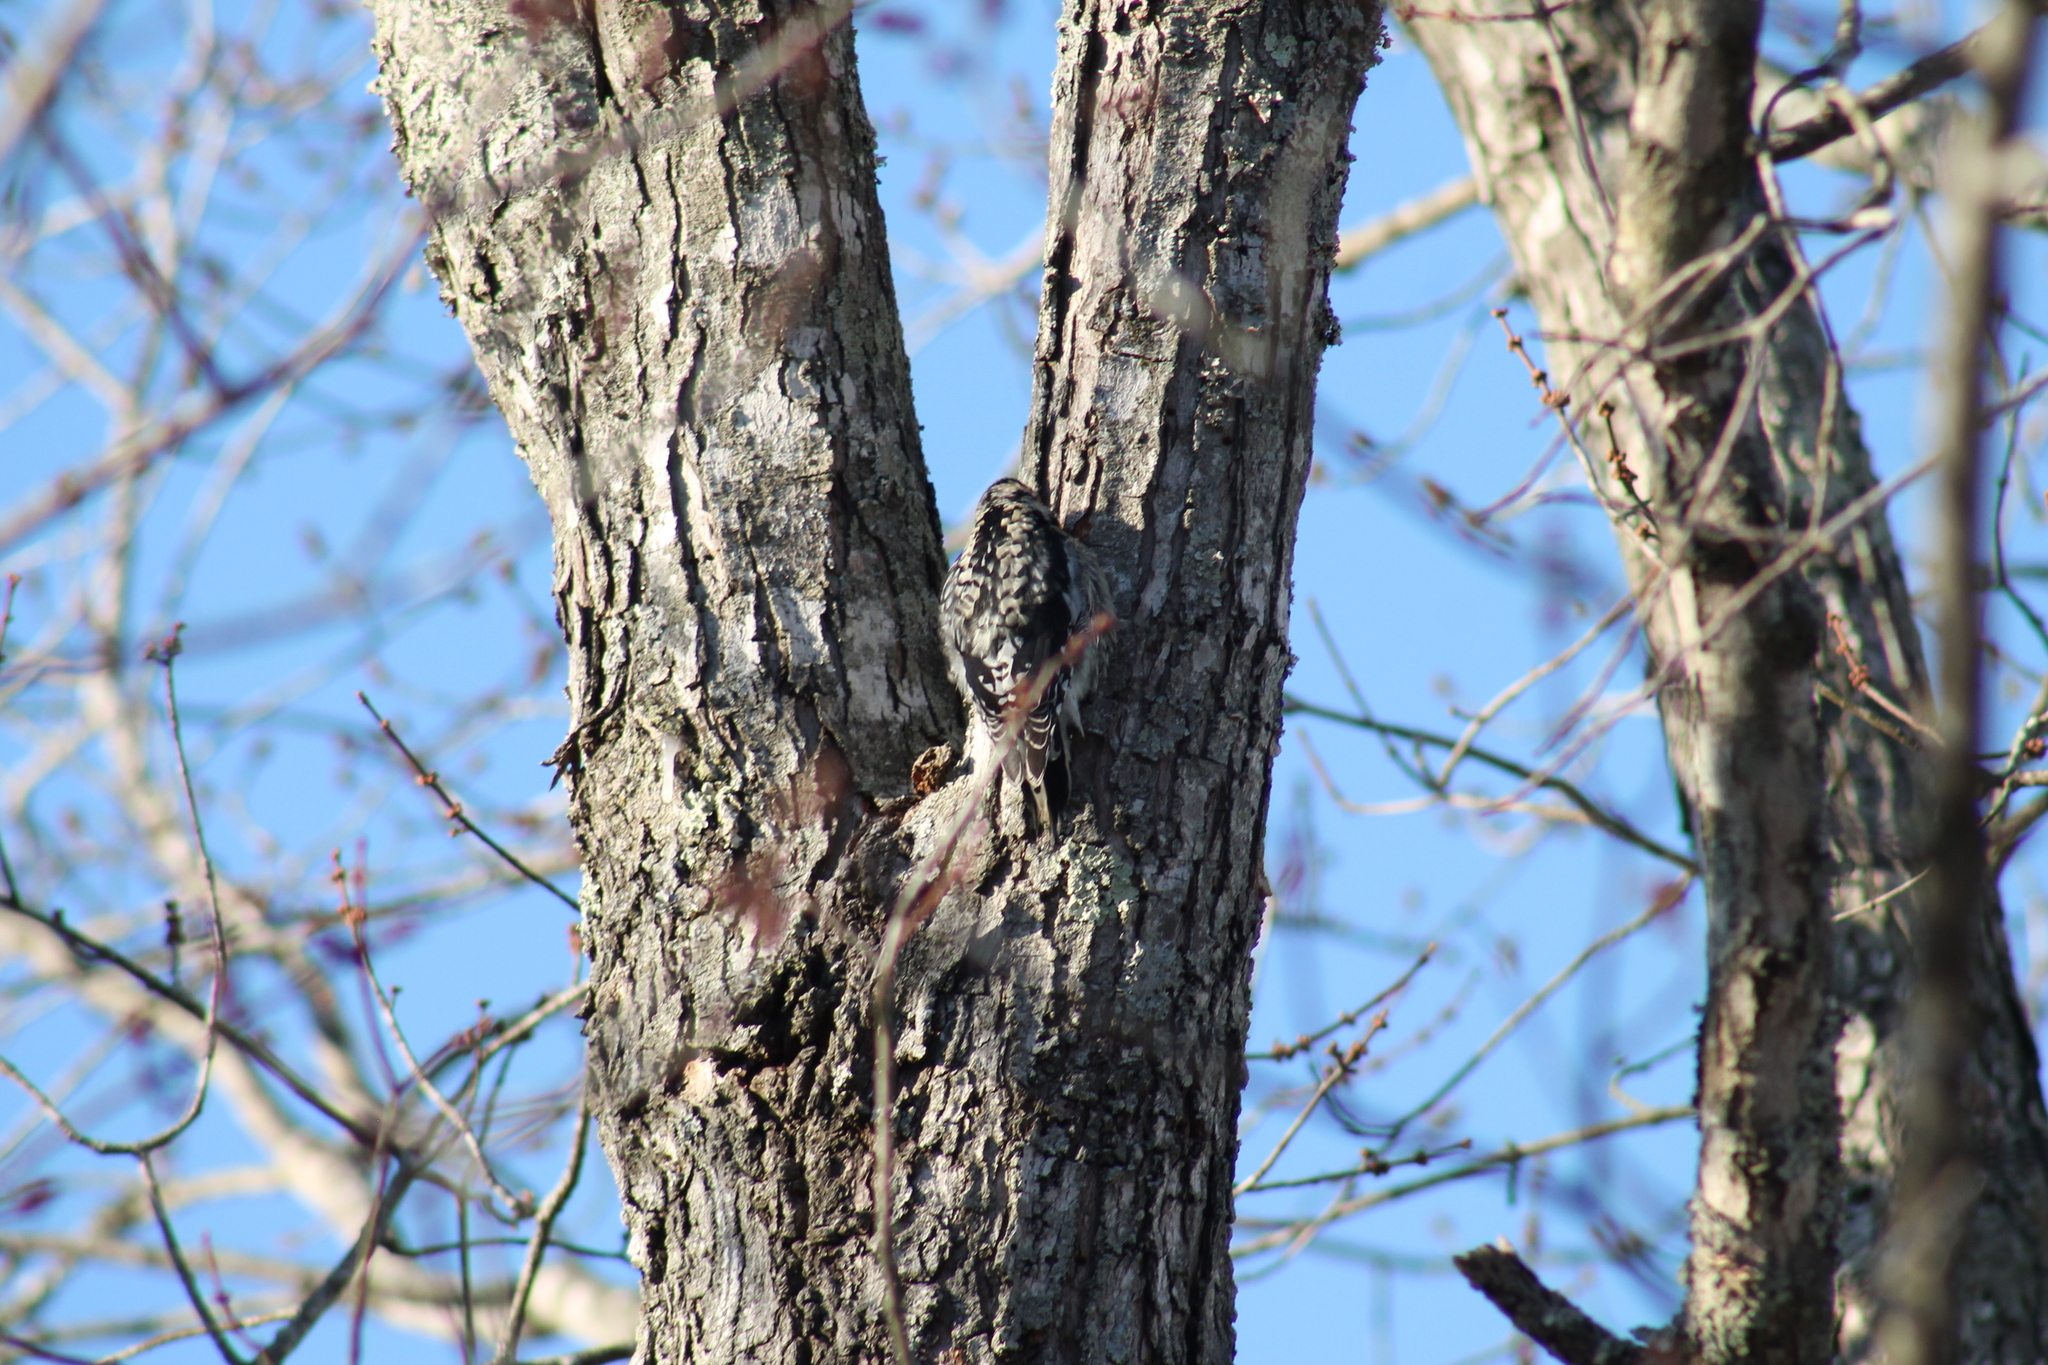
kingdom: Animalia
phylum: Chordata
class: Aves
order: Piciformes
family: Picidae
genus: Sphyrapicus
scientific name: Sphyrapicus varius
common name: Yellow-bellied sapsucker
